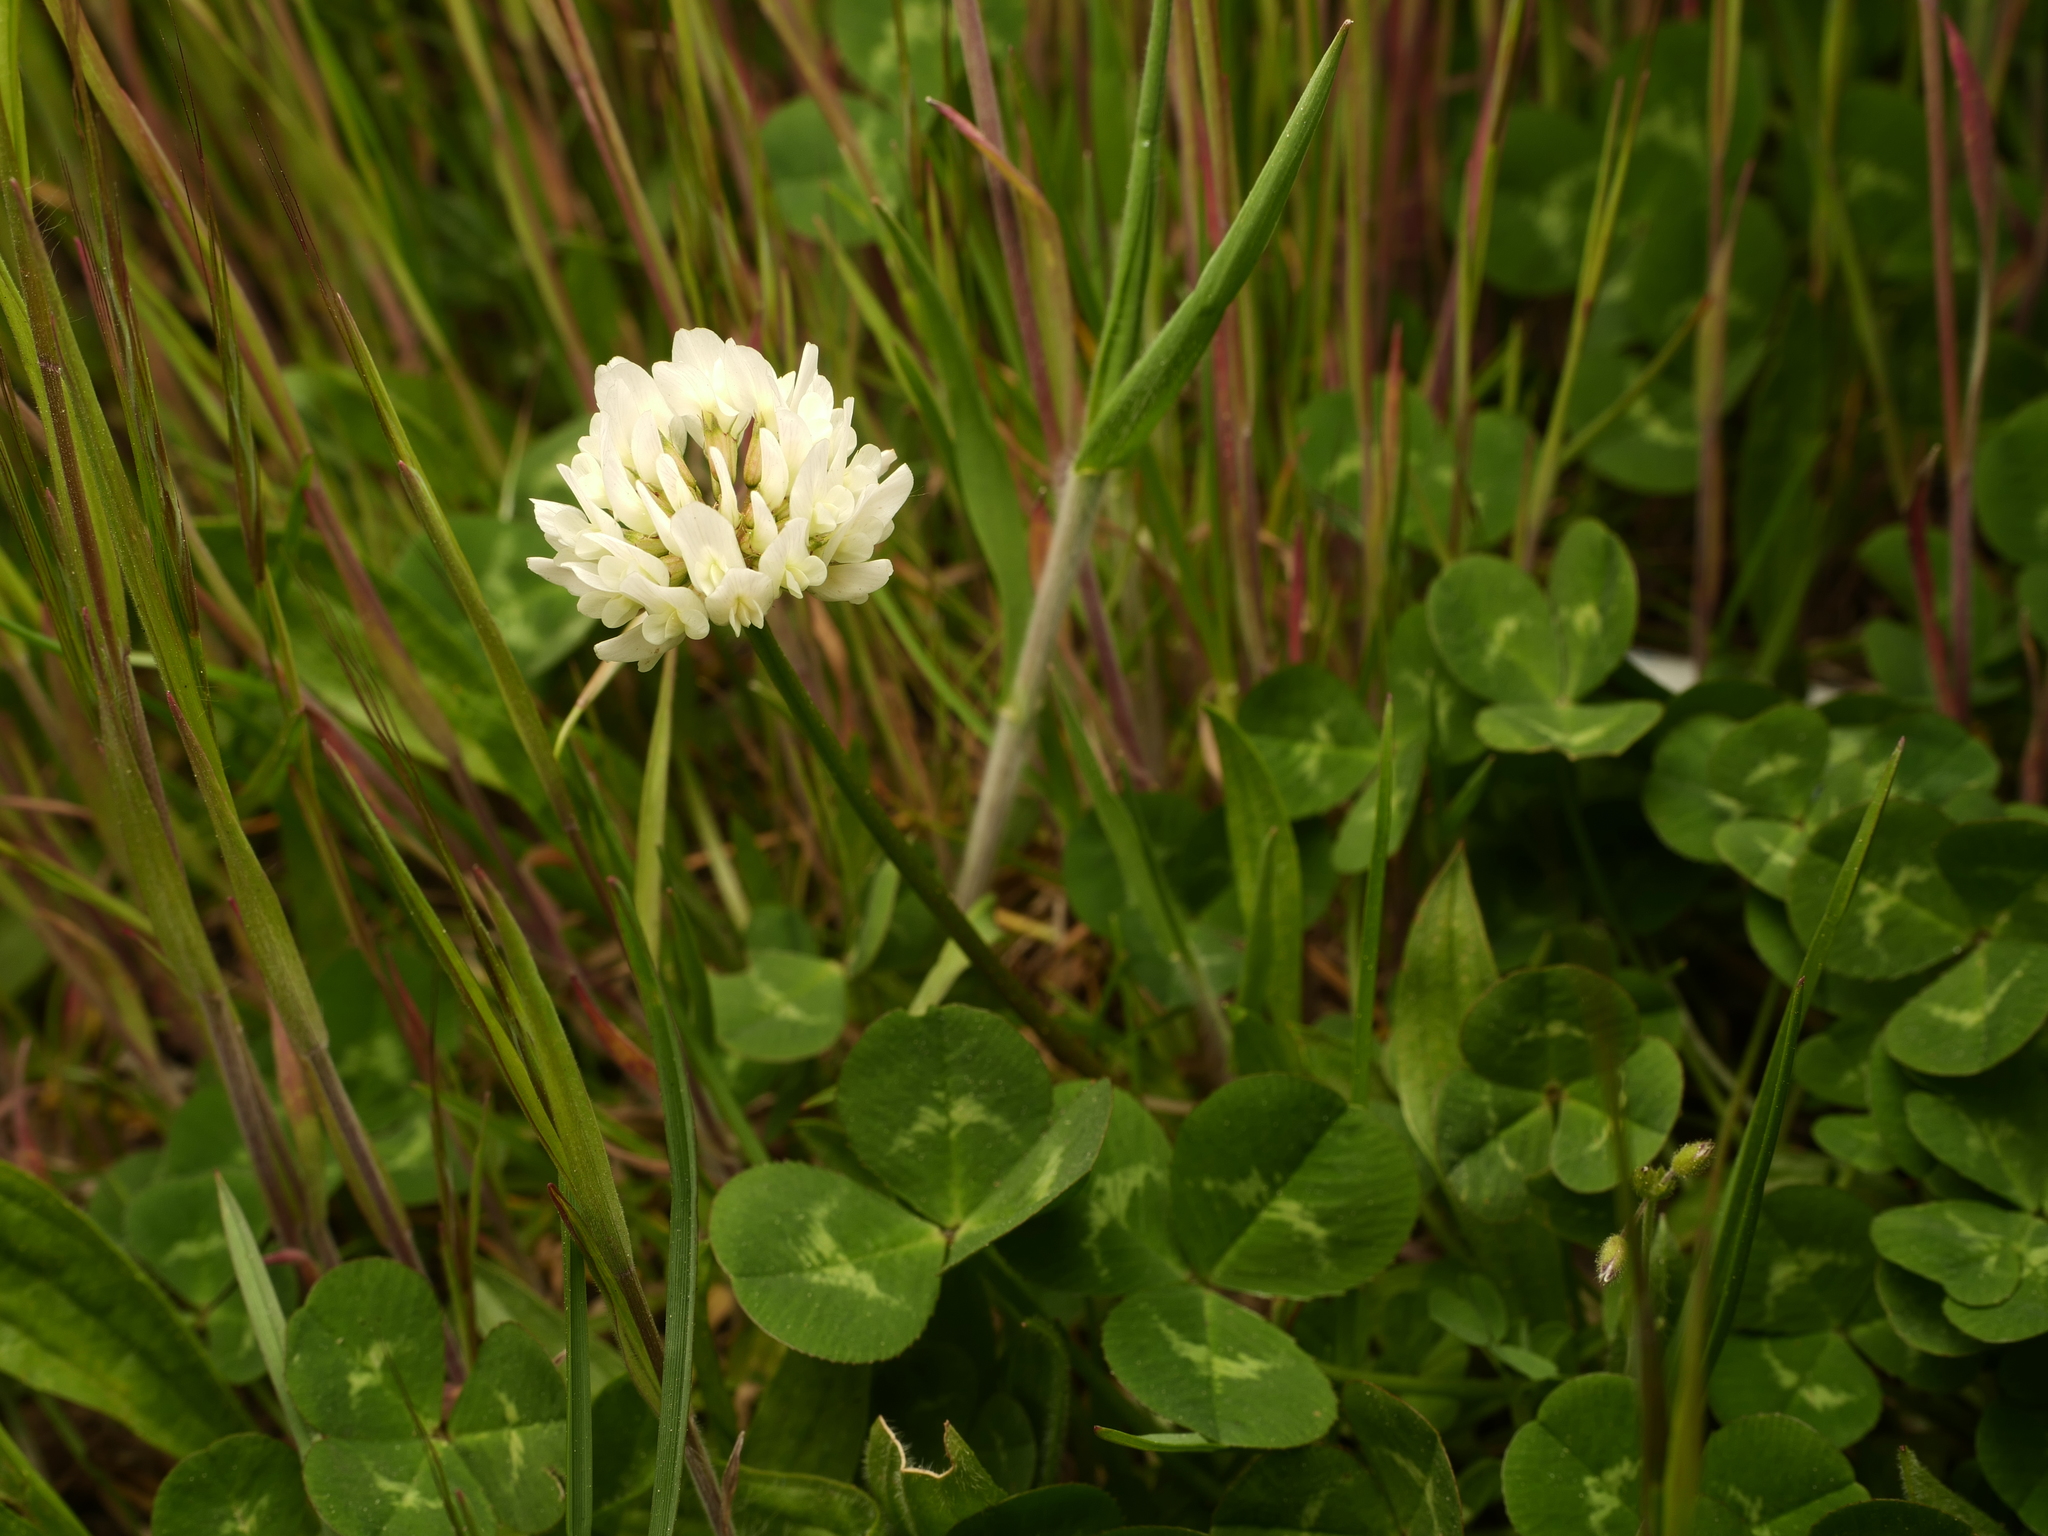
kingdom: Plantae
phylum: Tracheophyta
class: Magnoliopsida
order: Fabales
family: Fabaceae
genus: Trifolium
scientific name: Trifolium repens
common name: White clover
